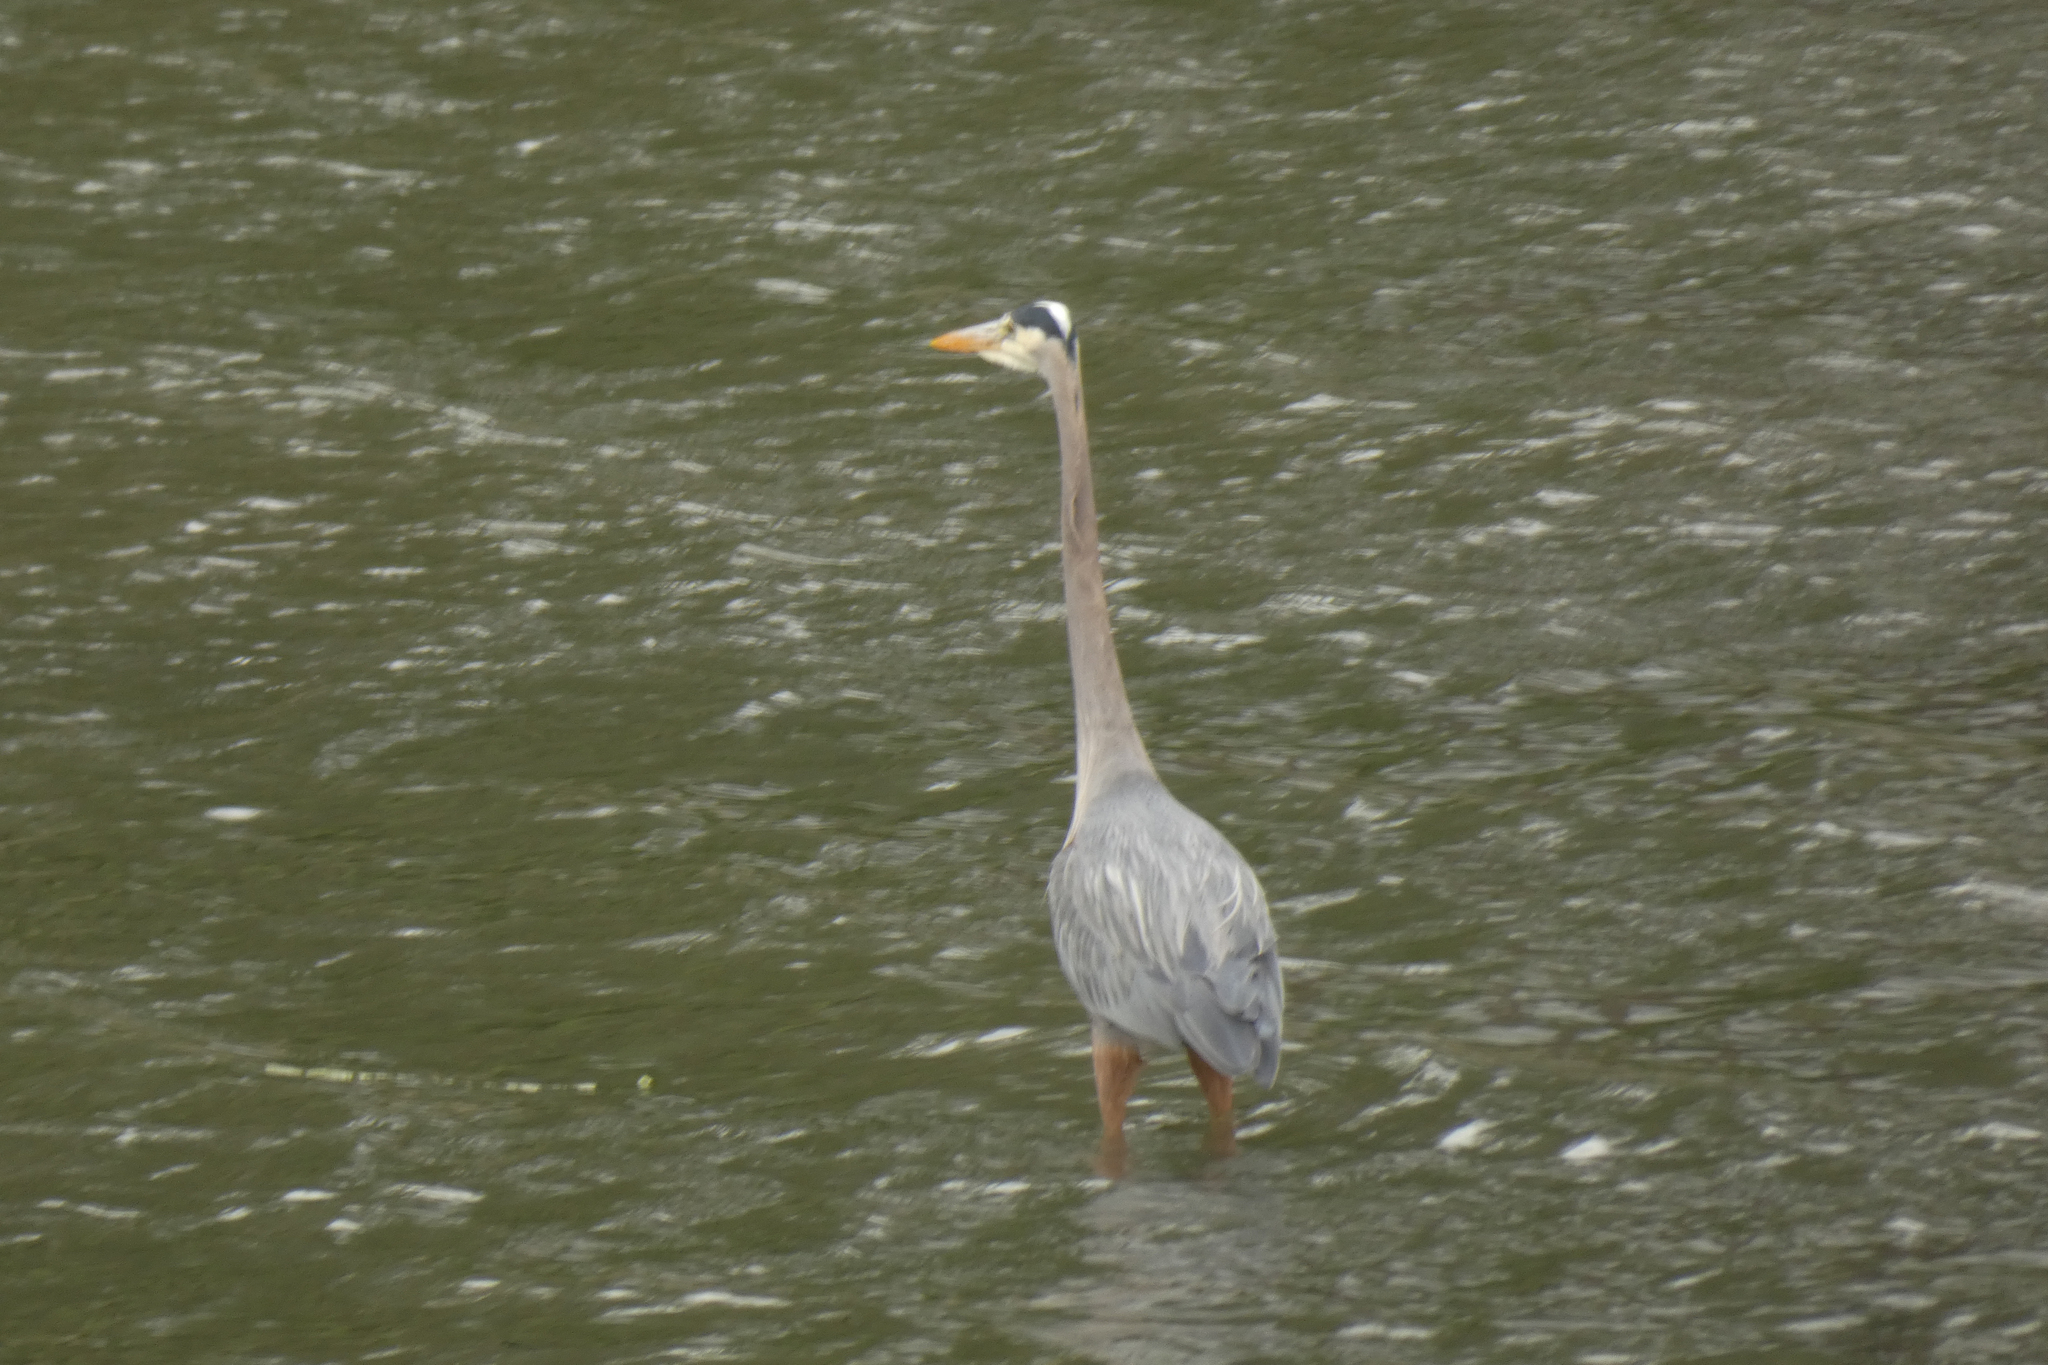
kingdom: Animalia
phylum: Chordata
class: Aves
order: Pelecaniformes
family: Ardeidae
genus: Ardea
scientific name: Ardea herodias
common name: Great blue heron
